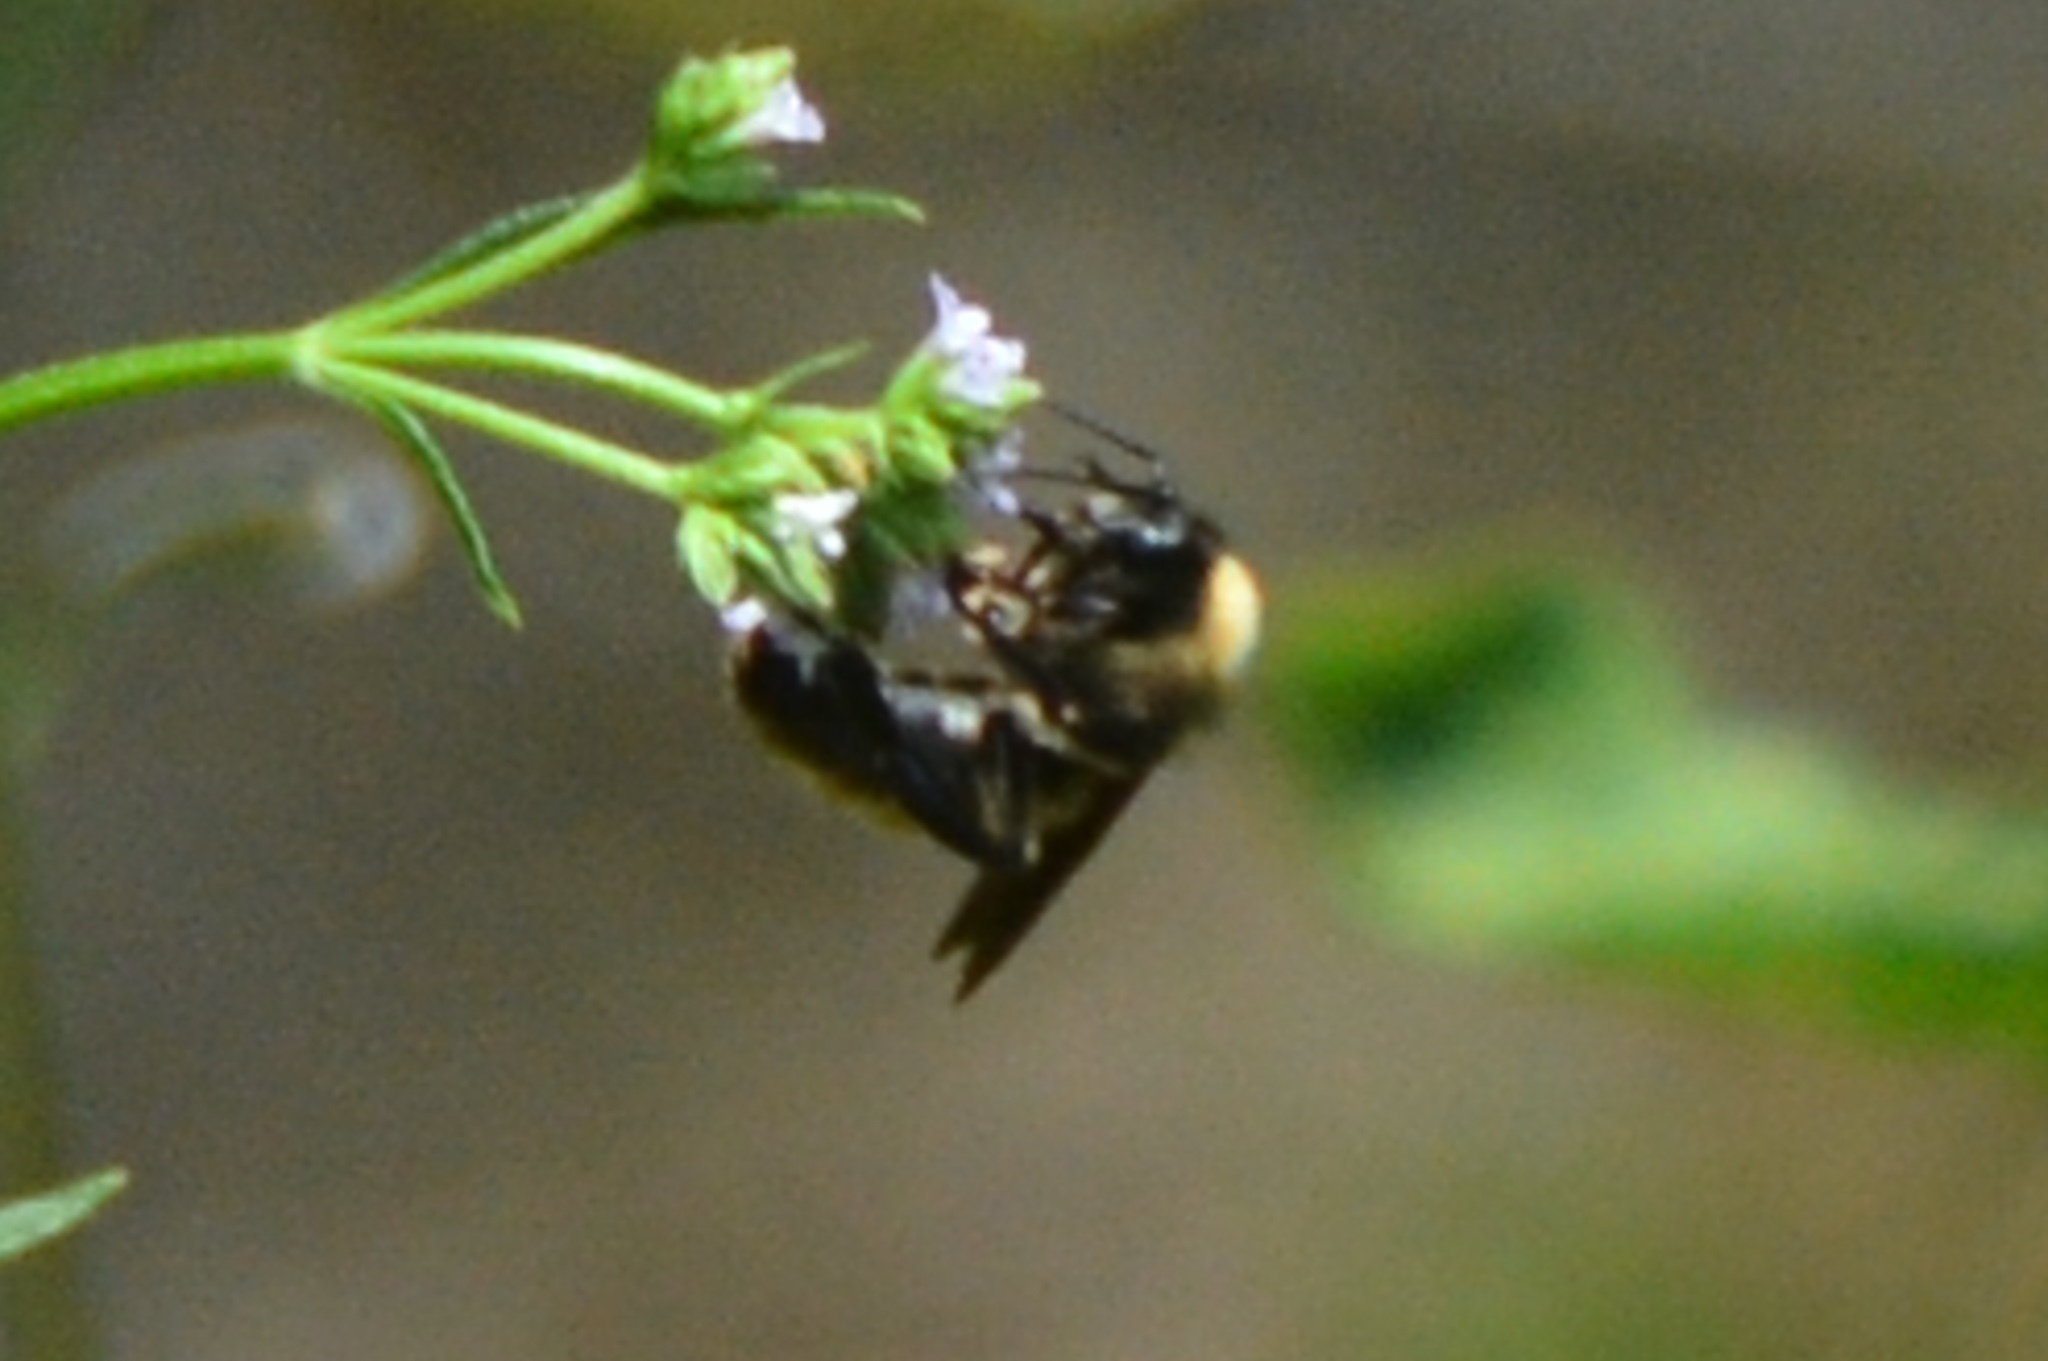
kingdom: Animalia
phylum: Arthropoda
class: Insecta
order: Hymenoptera
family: Apidae
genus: Bombus
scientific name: Bombus pensylvanicus
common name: Bumble bee
